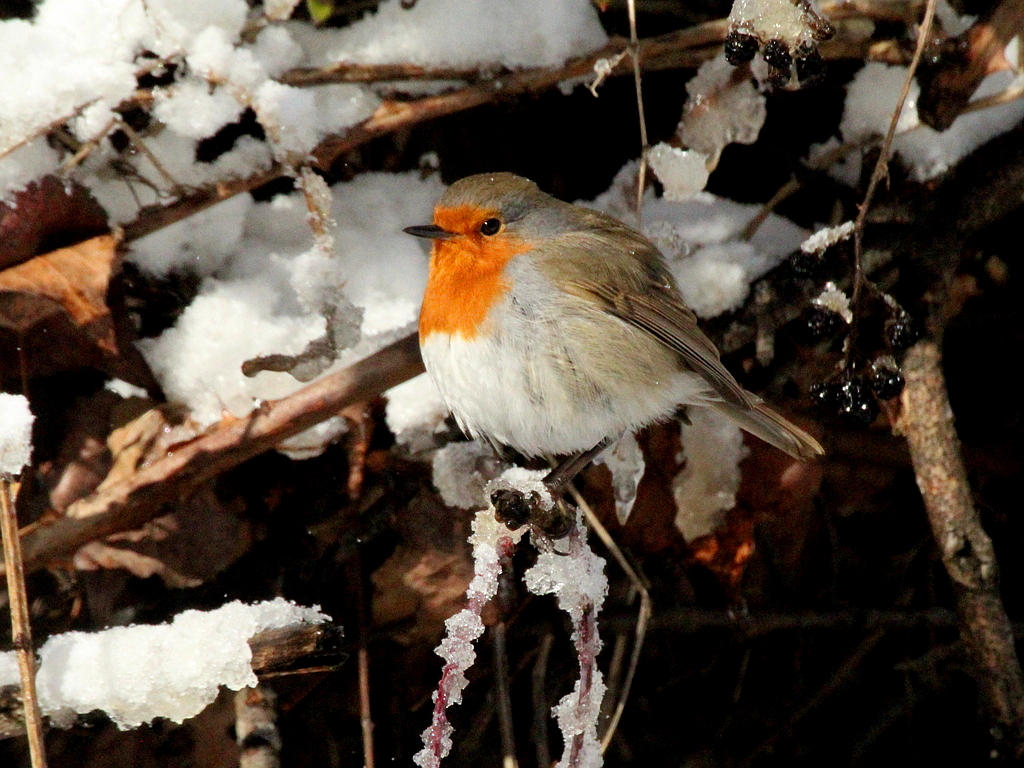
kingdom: Animalia
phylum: Chordata
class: Aves
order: Passeriformes
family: Muscicapidae
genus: Erithacus
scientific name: Erithacus rubecula
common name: European robin
